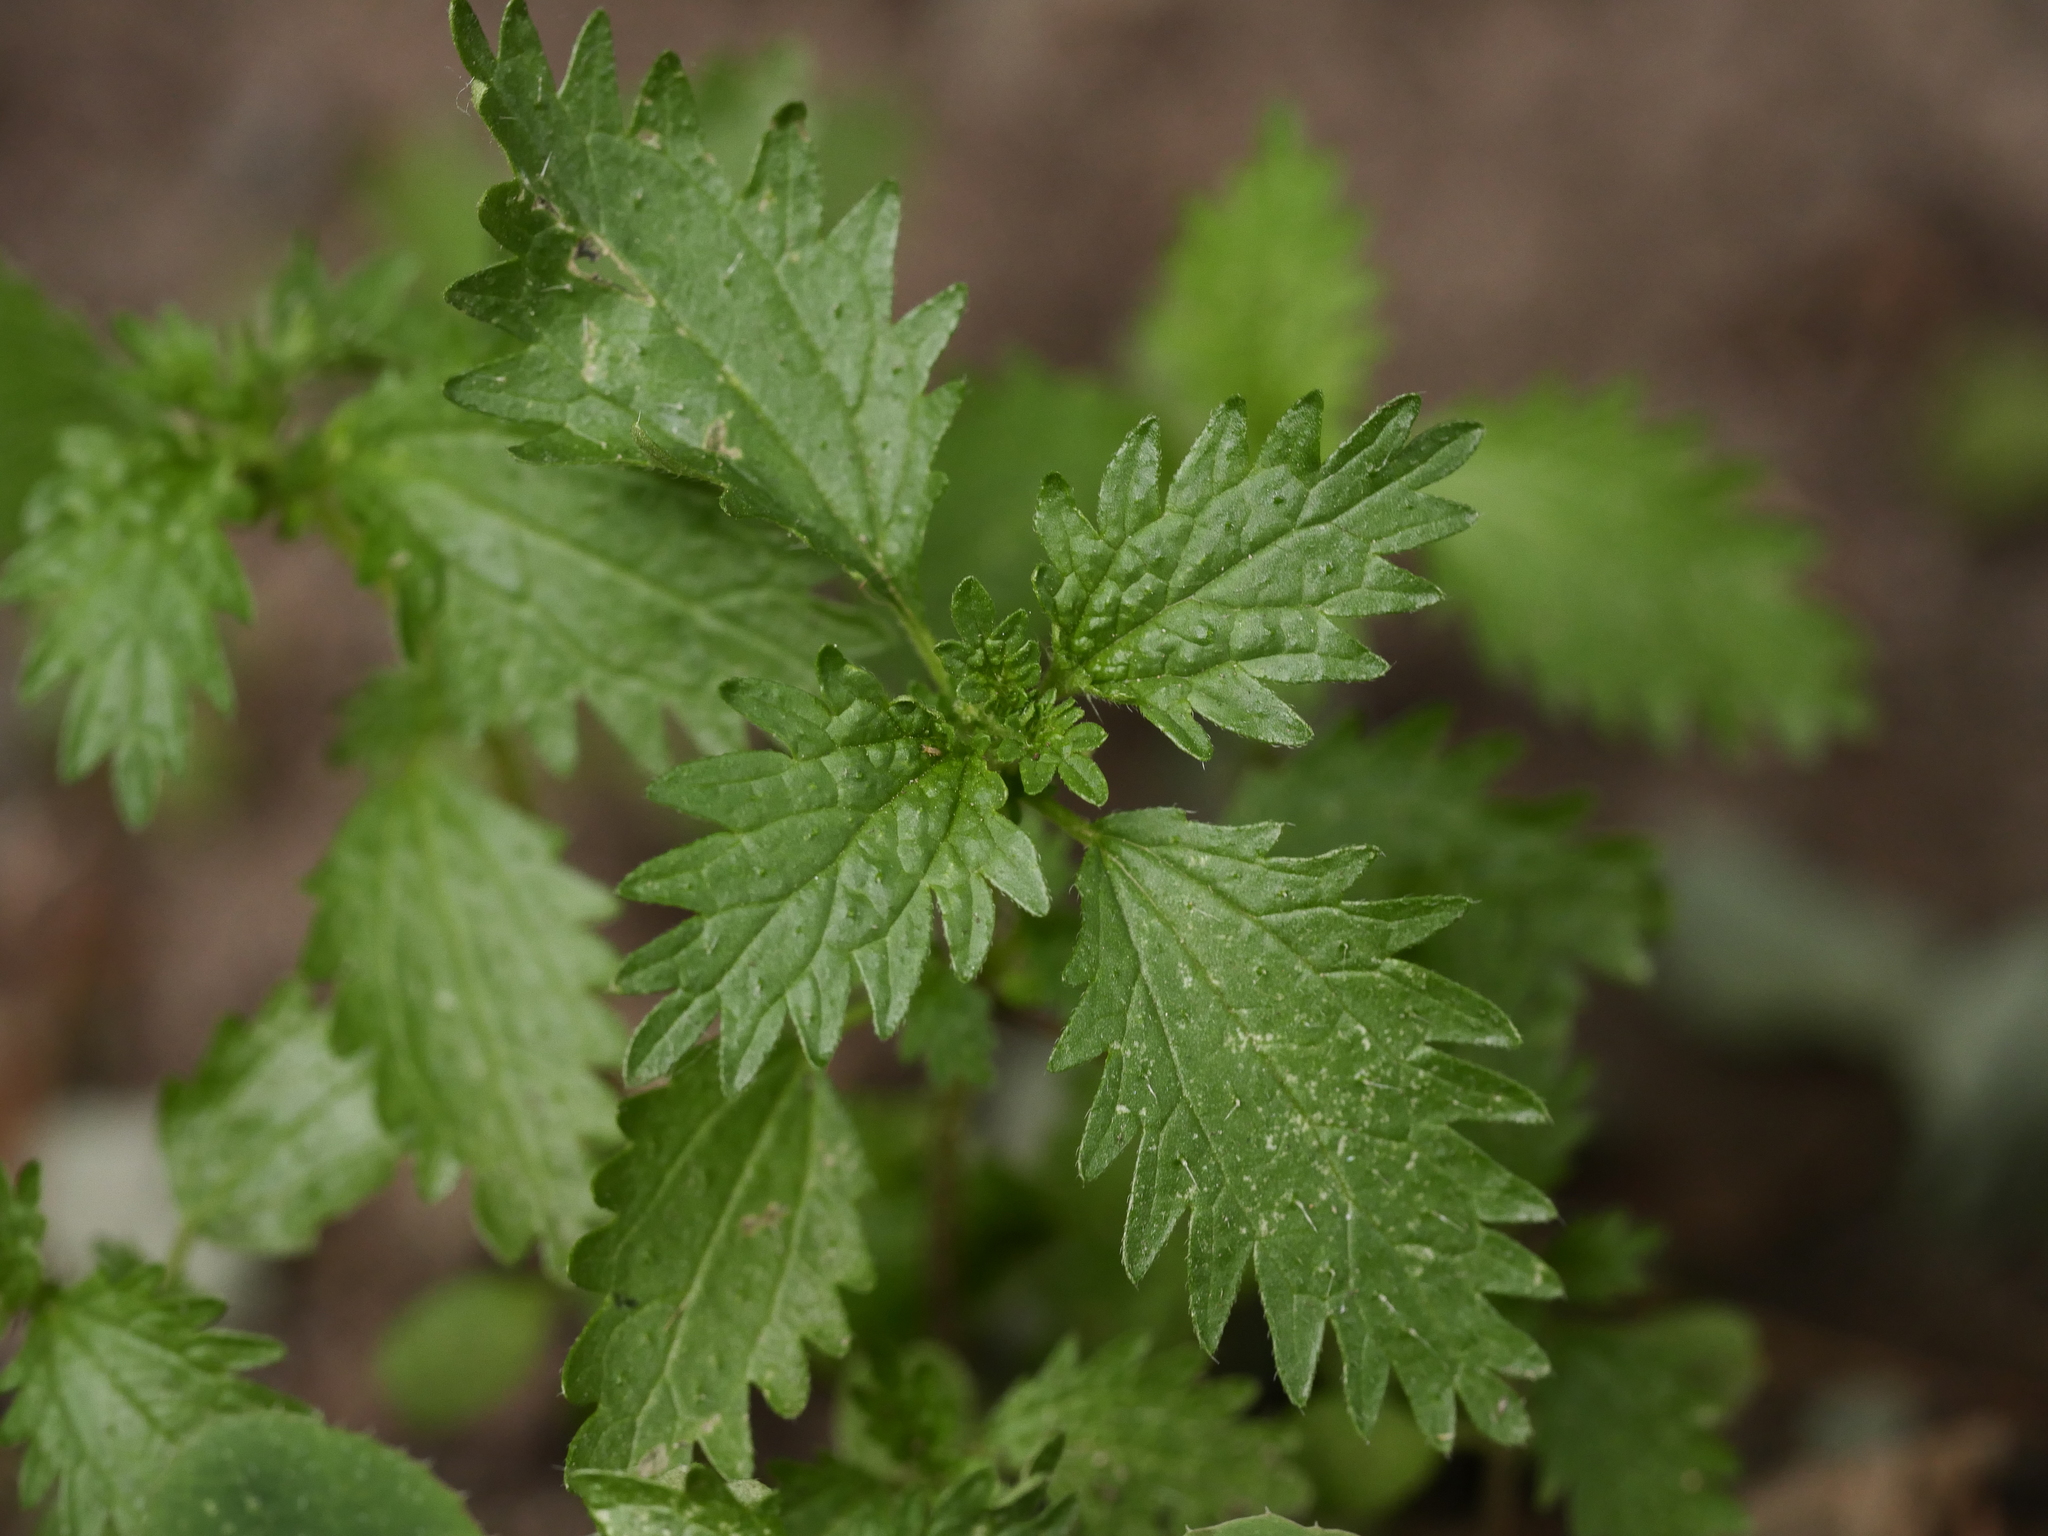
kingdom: Plantae
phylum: Tracheophyta
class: Magnoliopsida
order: Rosales
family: Urticaceae
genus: Urtica
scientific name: Urtica urens
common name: Dwarf nettle
